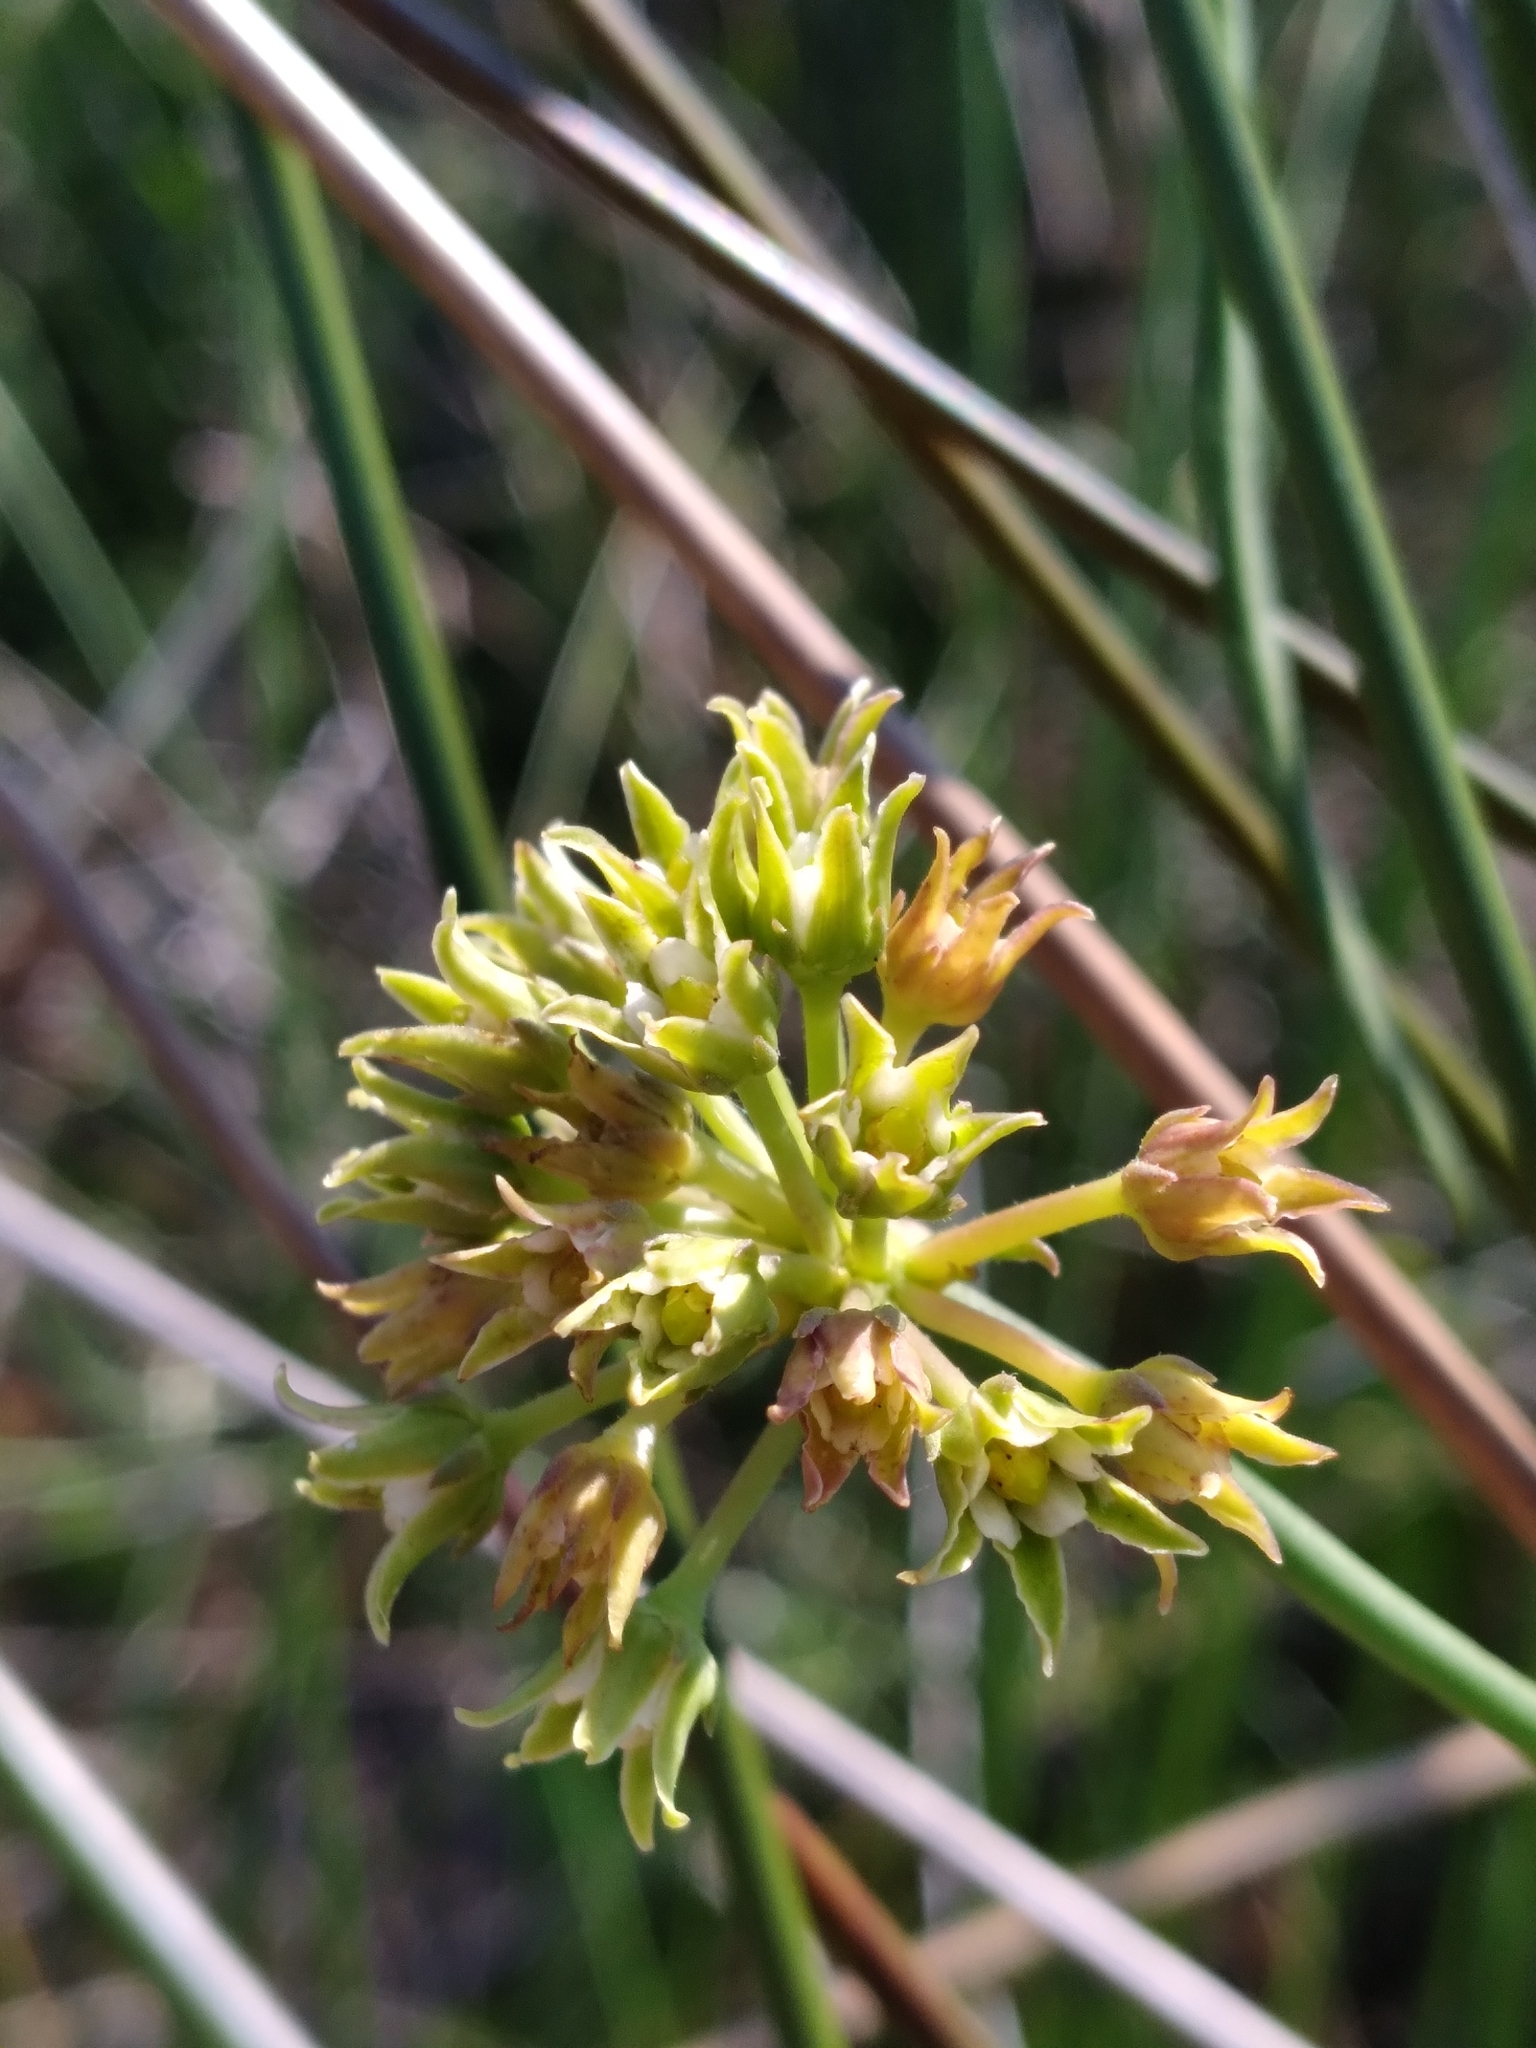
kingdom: Plantae
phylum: Tracheophyta
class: Magnoliopsida
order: Gentianales
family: Apocynaceae
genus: Pattalias
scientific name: Pattalias
